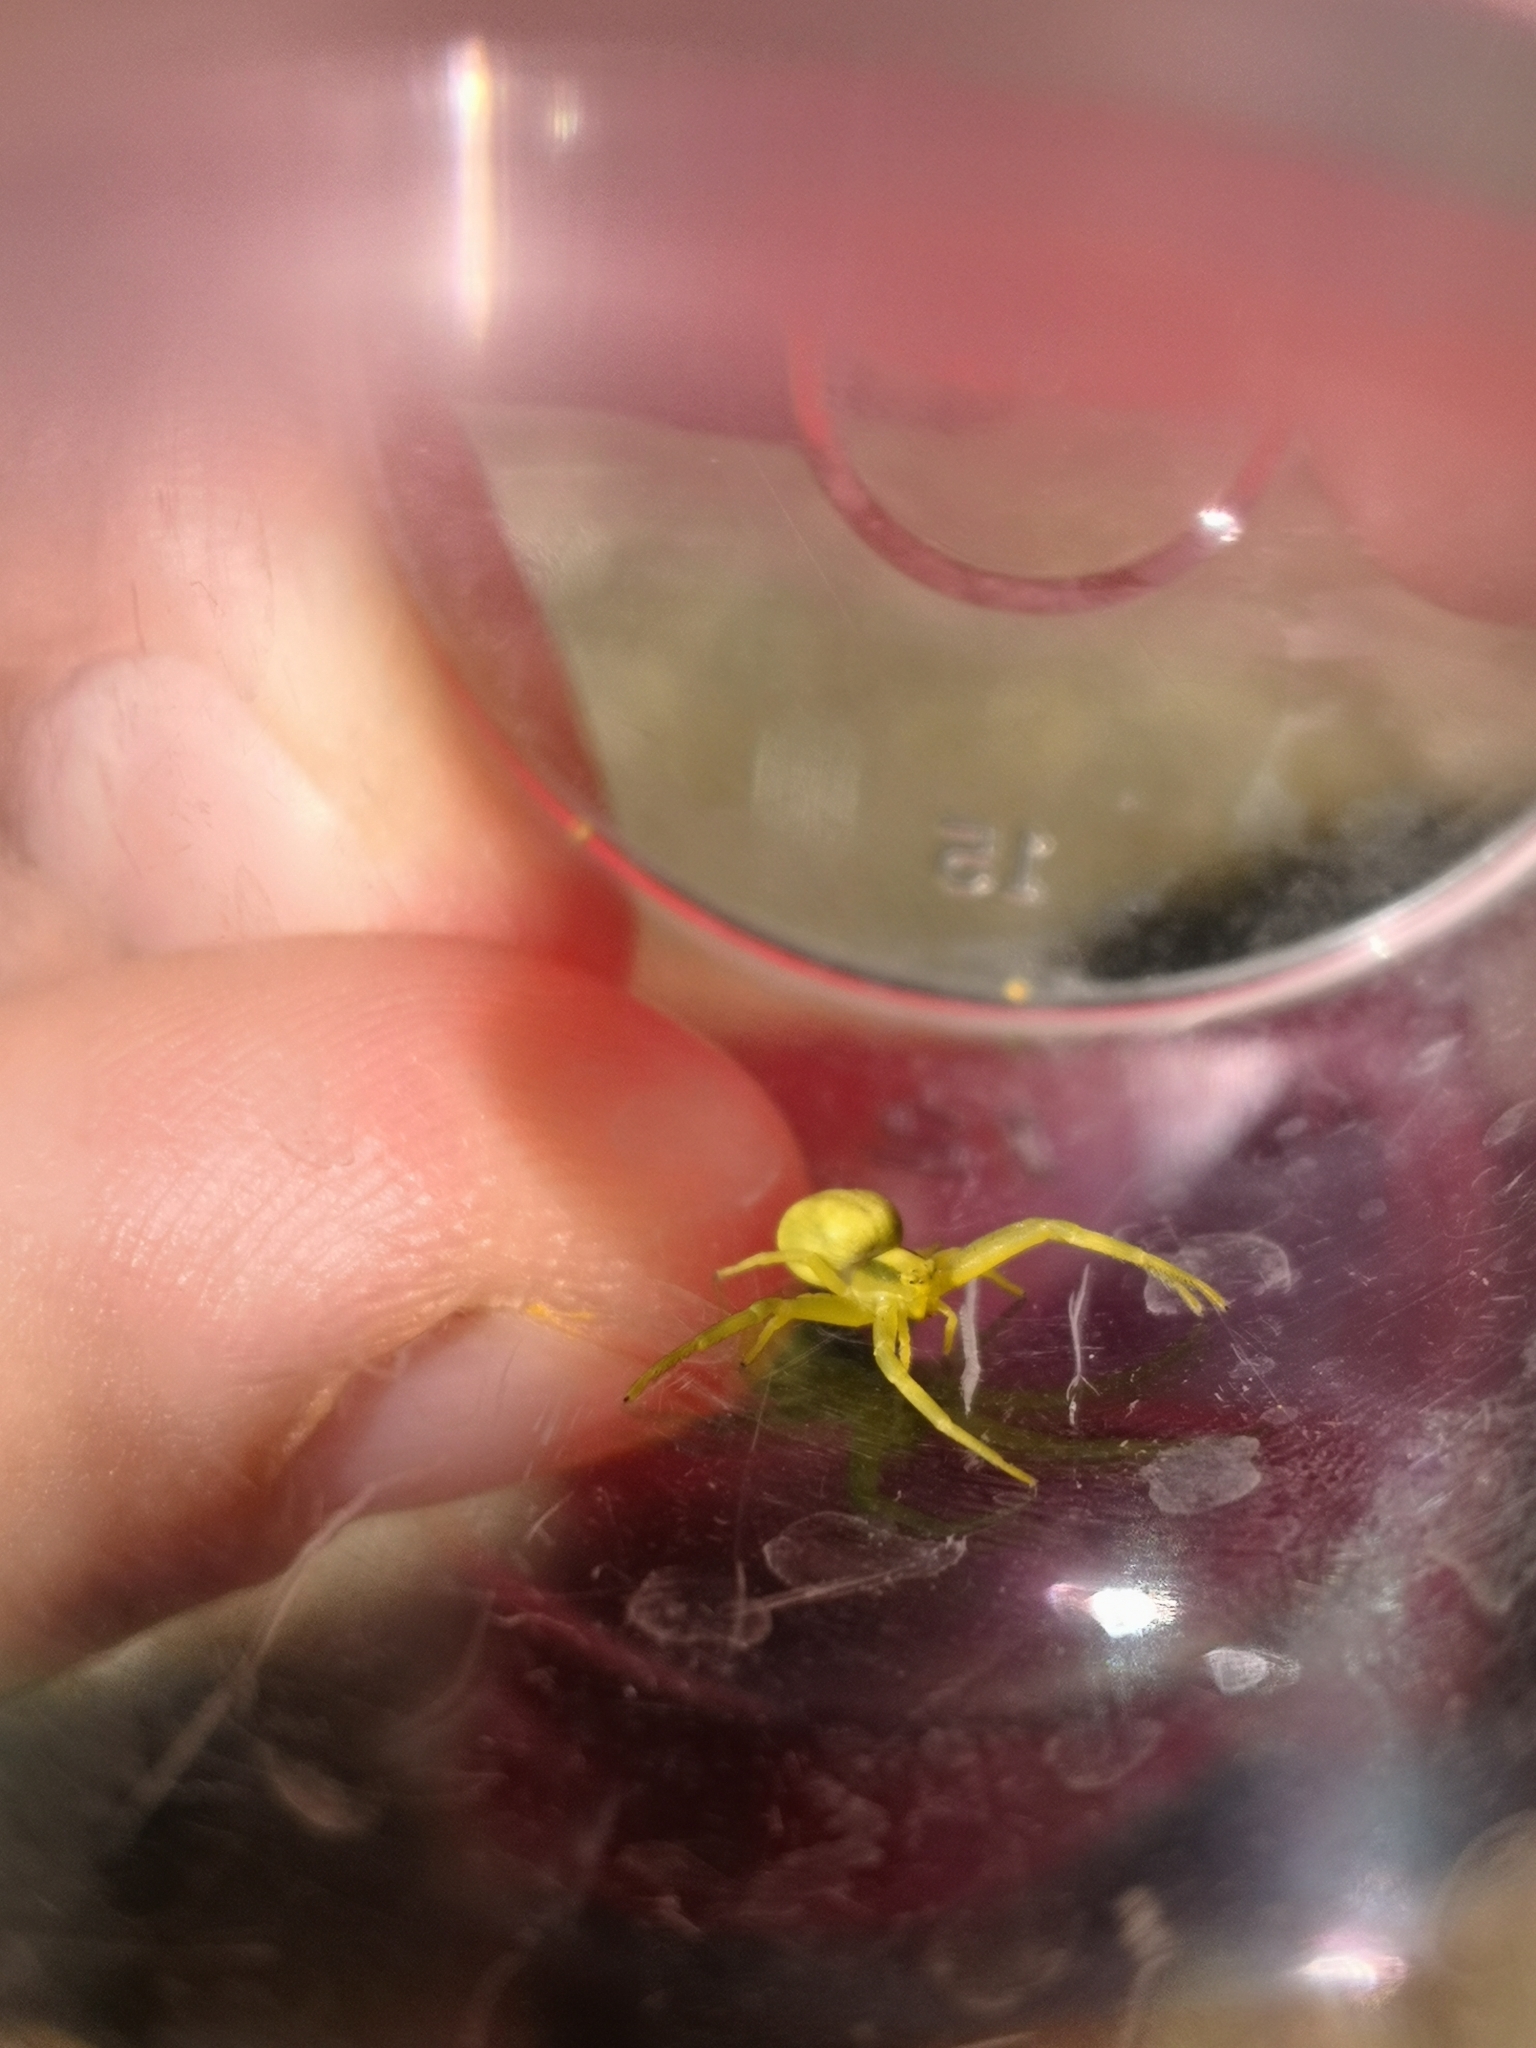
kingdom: Animalia
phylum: Arthropoda
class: Arachnida
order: Araneae
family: Thomisidae
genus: Misumena
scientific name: Misumena vatia
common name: Goldenrod crab spider
